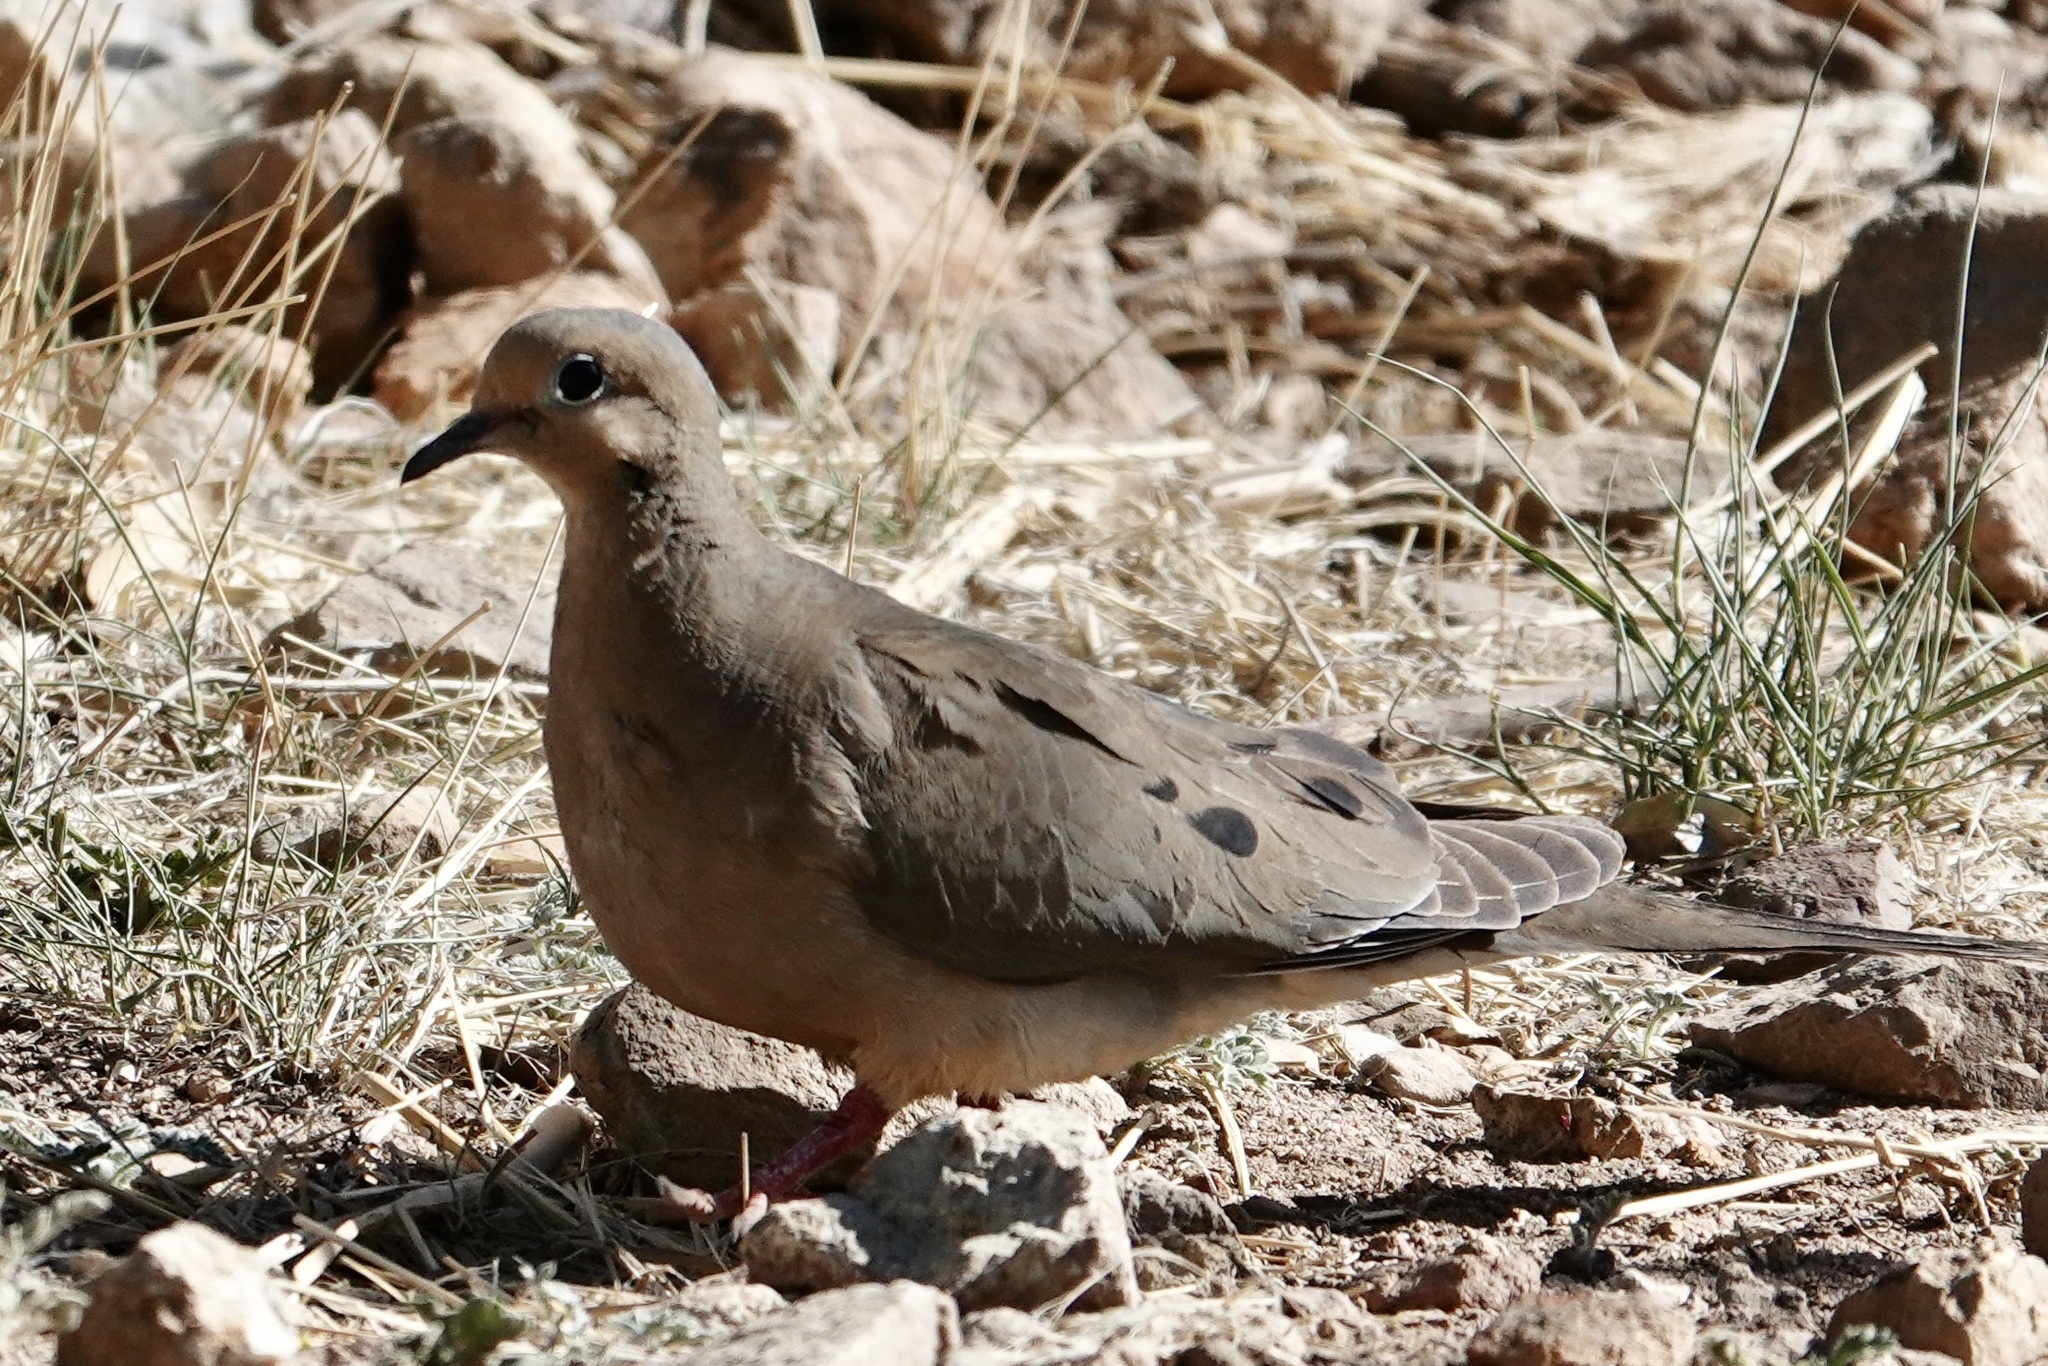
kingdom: Animalia
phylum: Chordata
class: Aves
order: Columbiformes
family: Columbidae
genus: Zenaida
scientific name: Zenaida macroura
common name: Mourning dove
